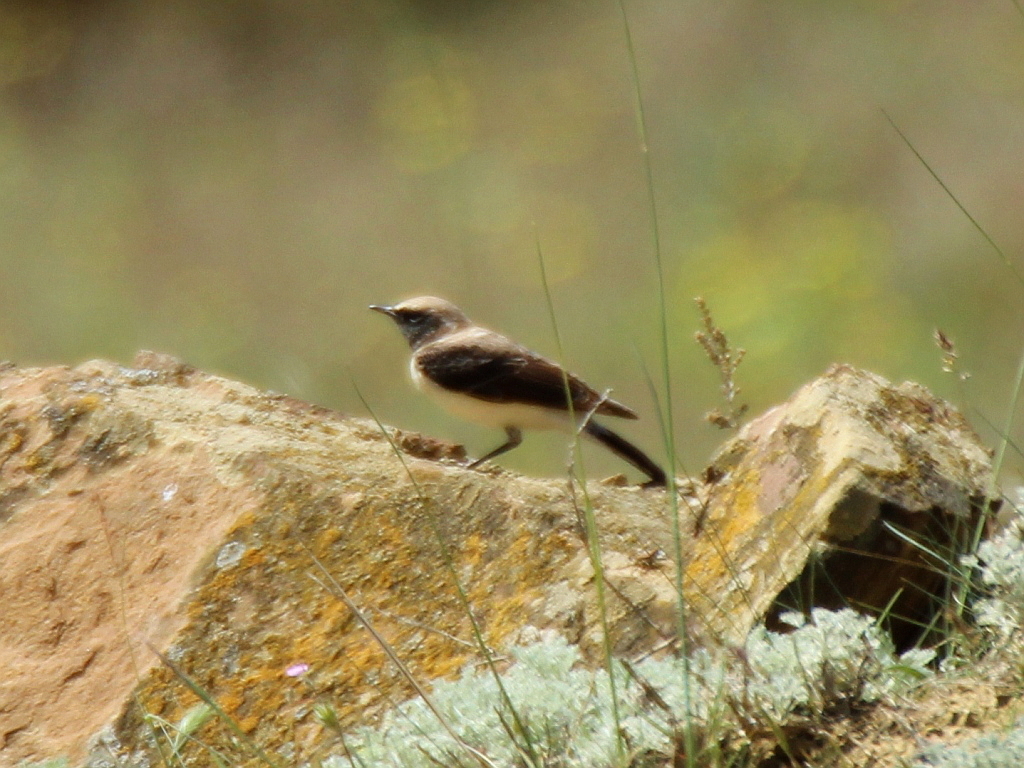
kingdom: Animalia
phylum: Chordata
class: Aves
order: Passeriformes
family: Muscicapidae
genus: Oenanthe
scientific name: Oenanthe hispanica
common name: Black-eared wheatear
